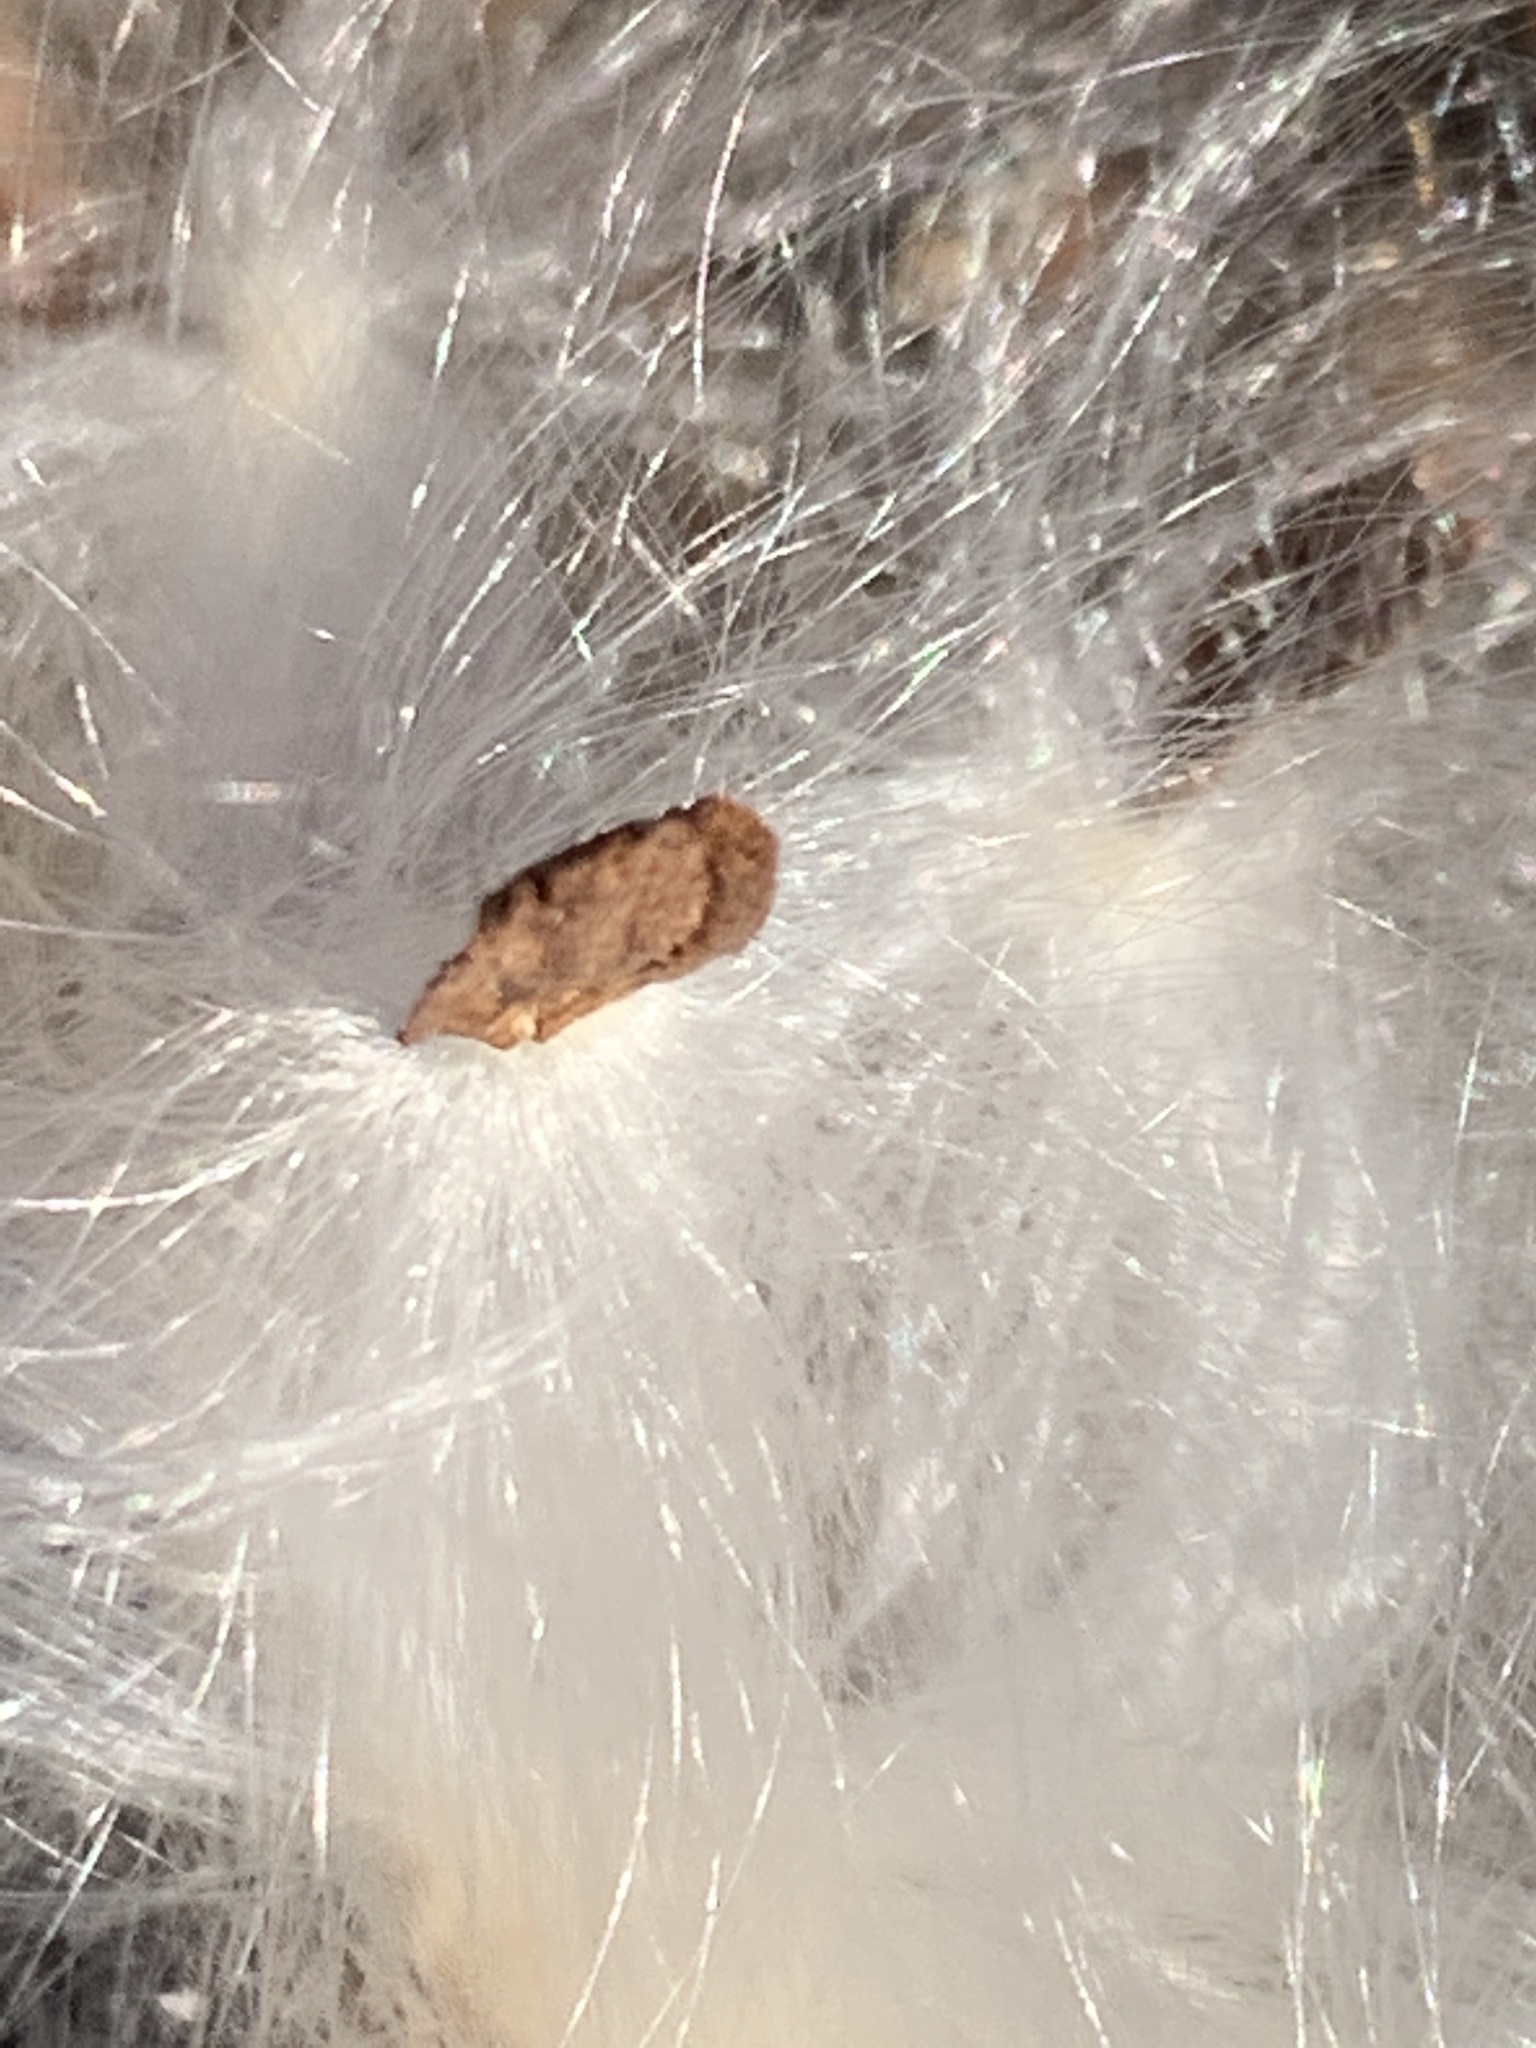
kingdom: Plantae
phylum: Tracheophyta
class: Magnoliopsida
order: Gentianales
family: Apocynaceae
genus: Asclepias
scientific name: Asclepias syriaca
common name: Common milkweed
